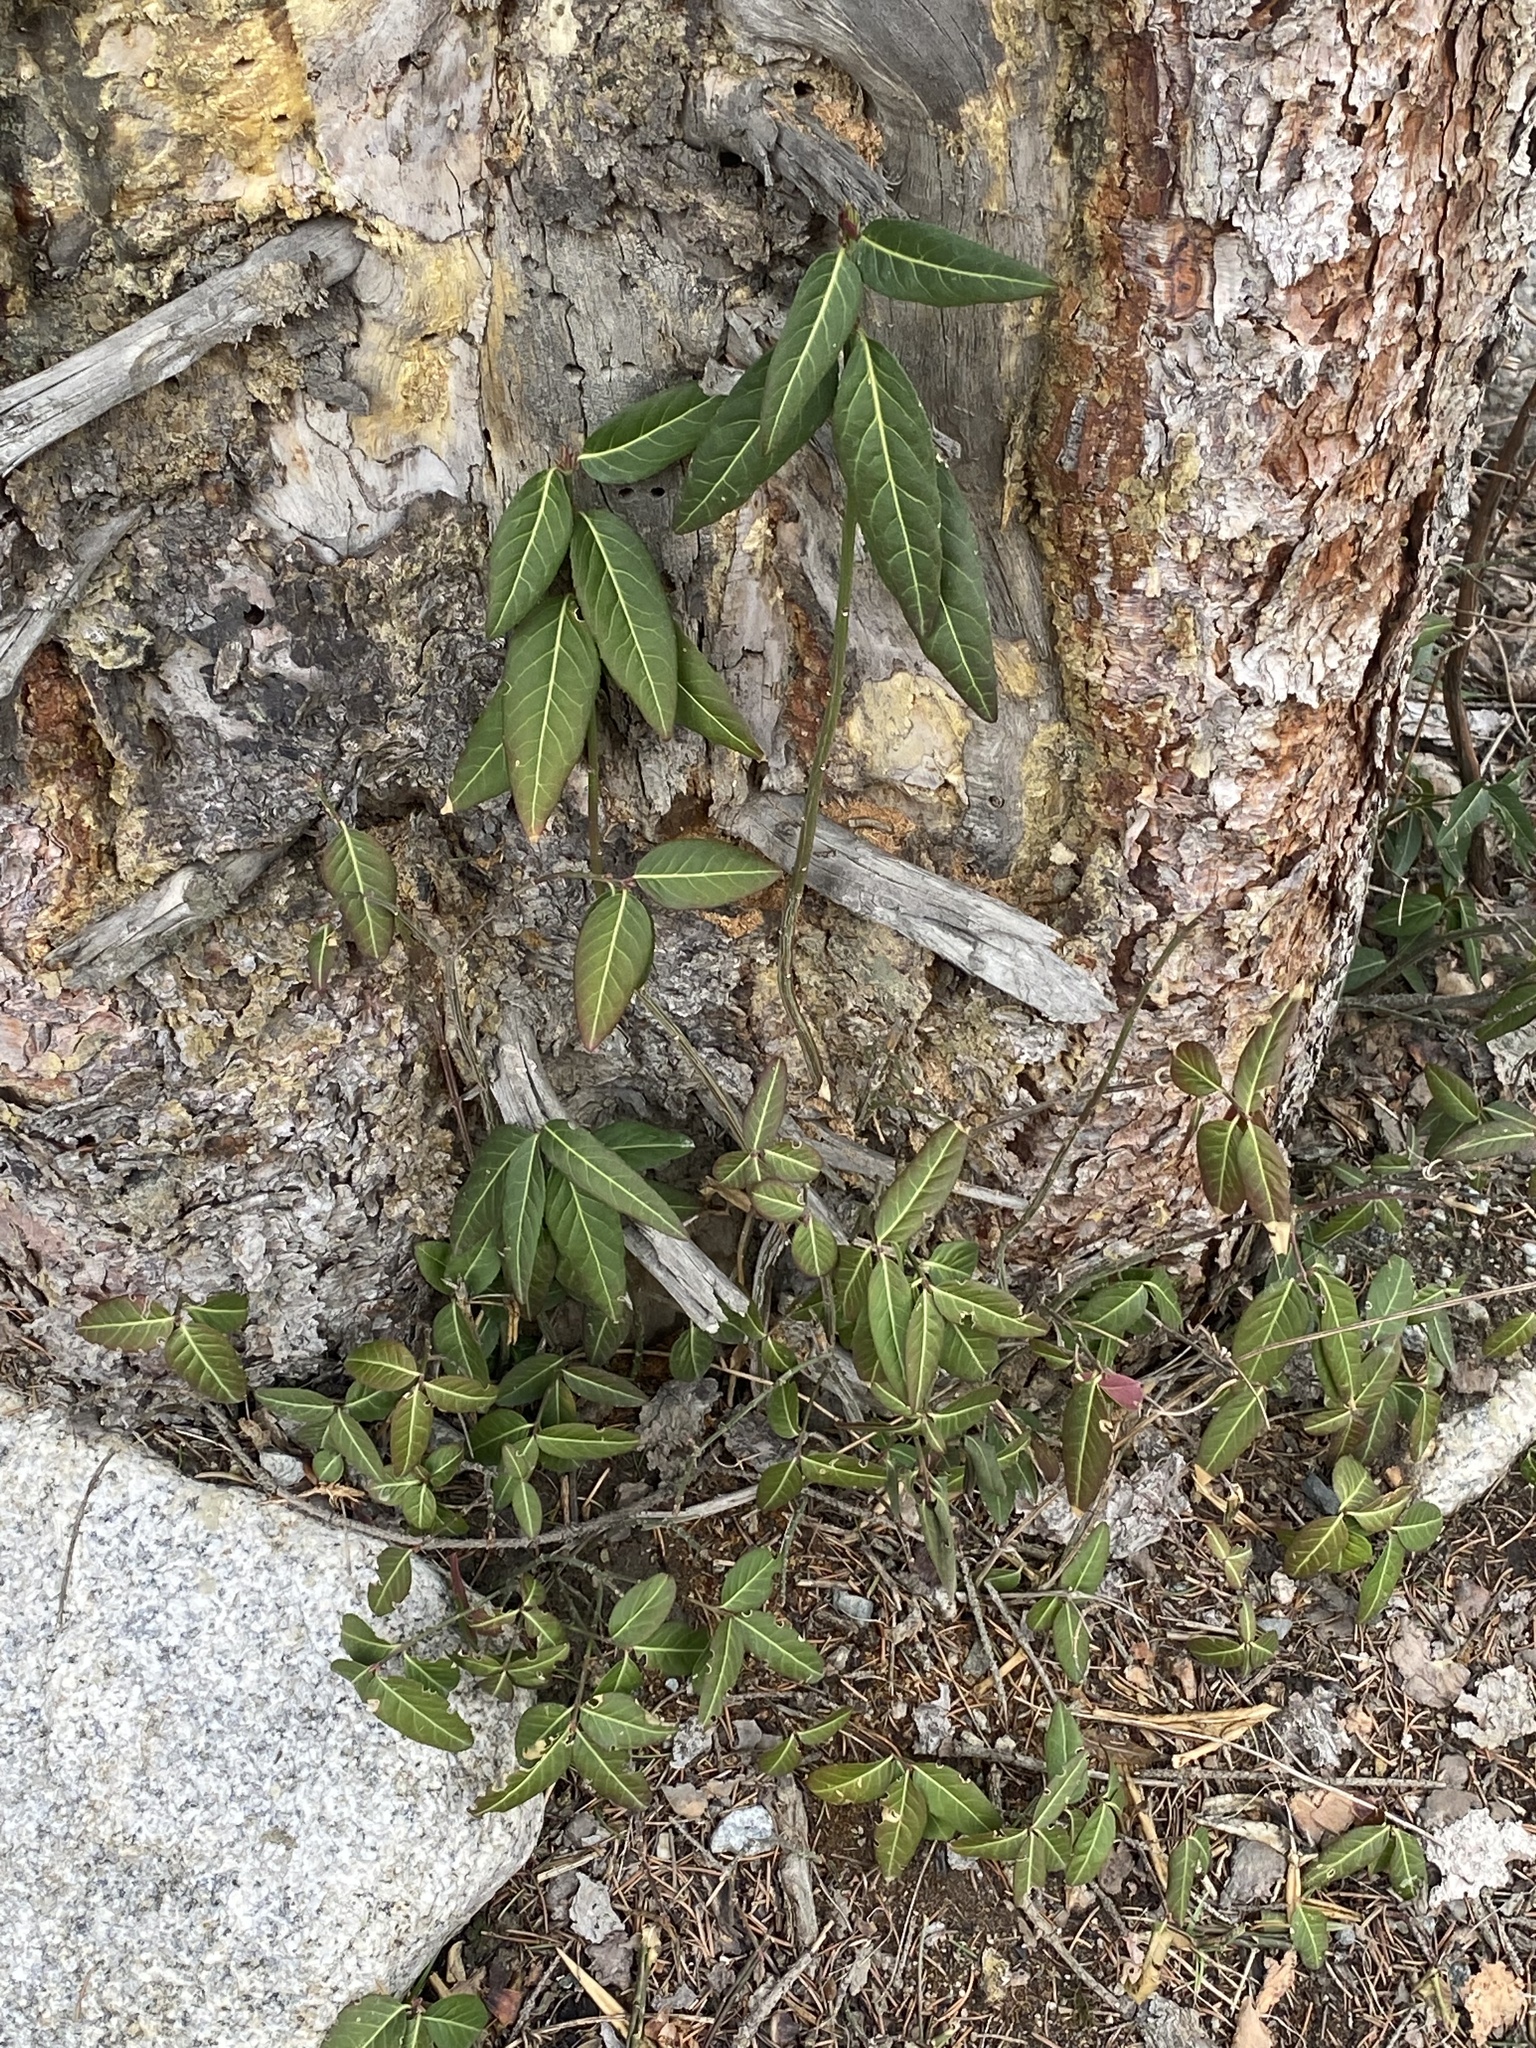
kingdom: Plantae
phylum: Tracheophyta
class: Magnoliopsida
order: Celastrales
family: Celastraceae
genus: Euonymus
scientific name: Euonymus semenovii
